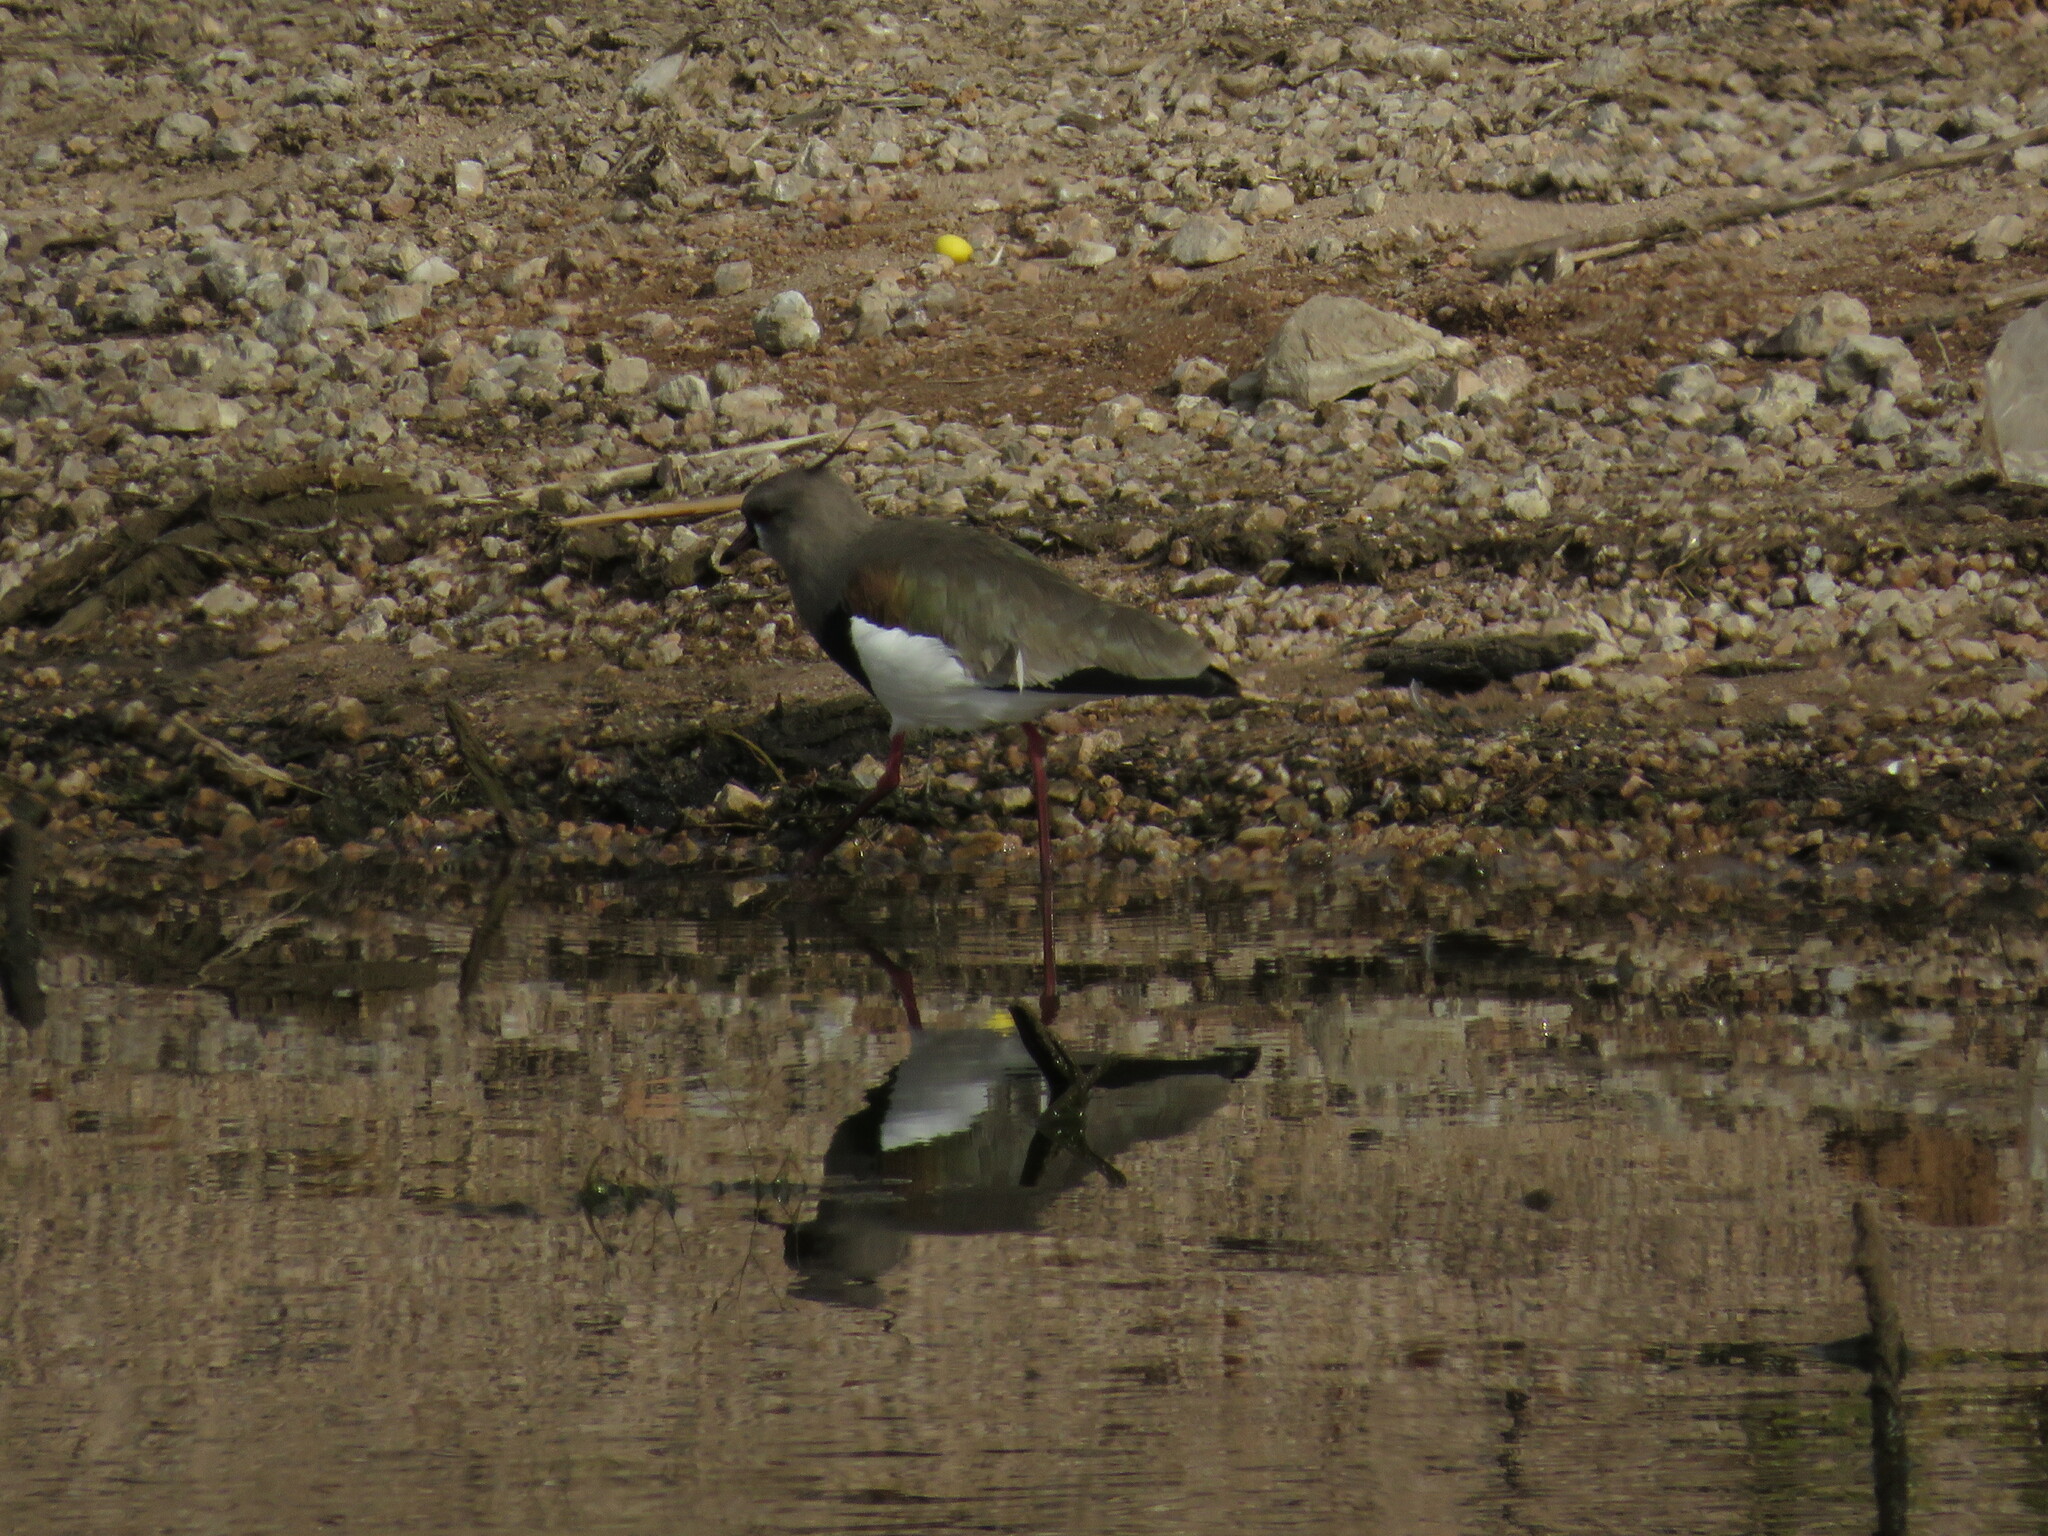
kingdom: Animalia
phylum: Chordata
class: Aves
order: Charadriiformes
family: Charadriidae
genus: Vanellus
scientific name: Vanellus chilensis
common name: Southern lapwing
